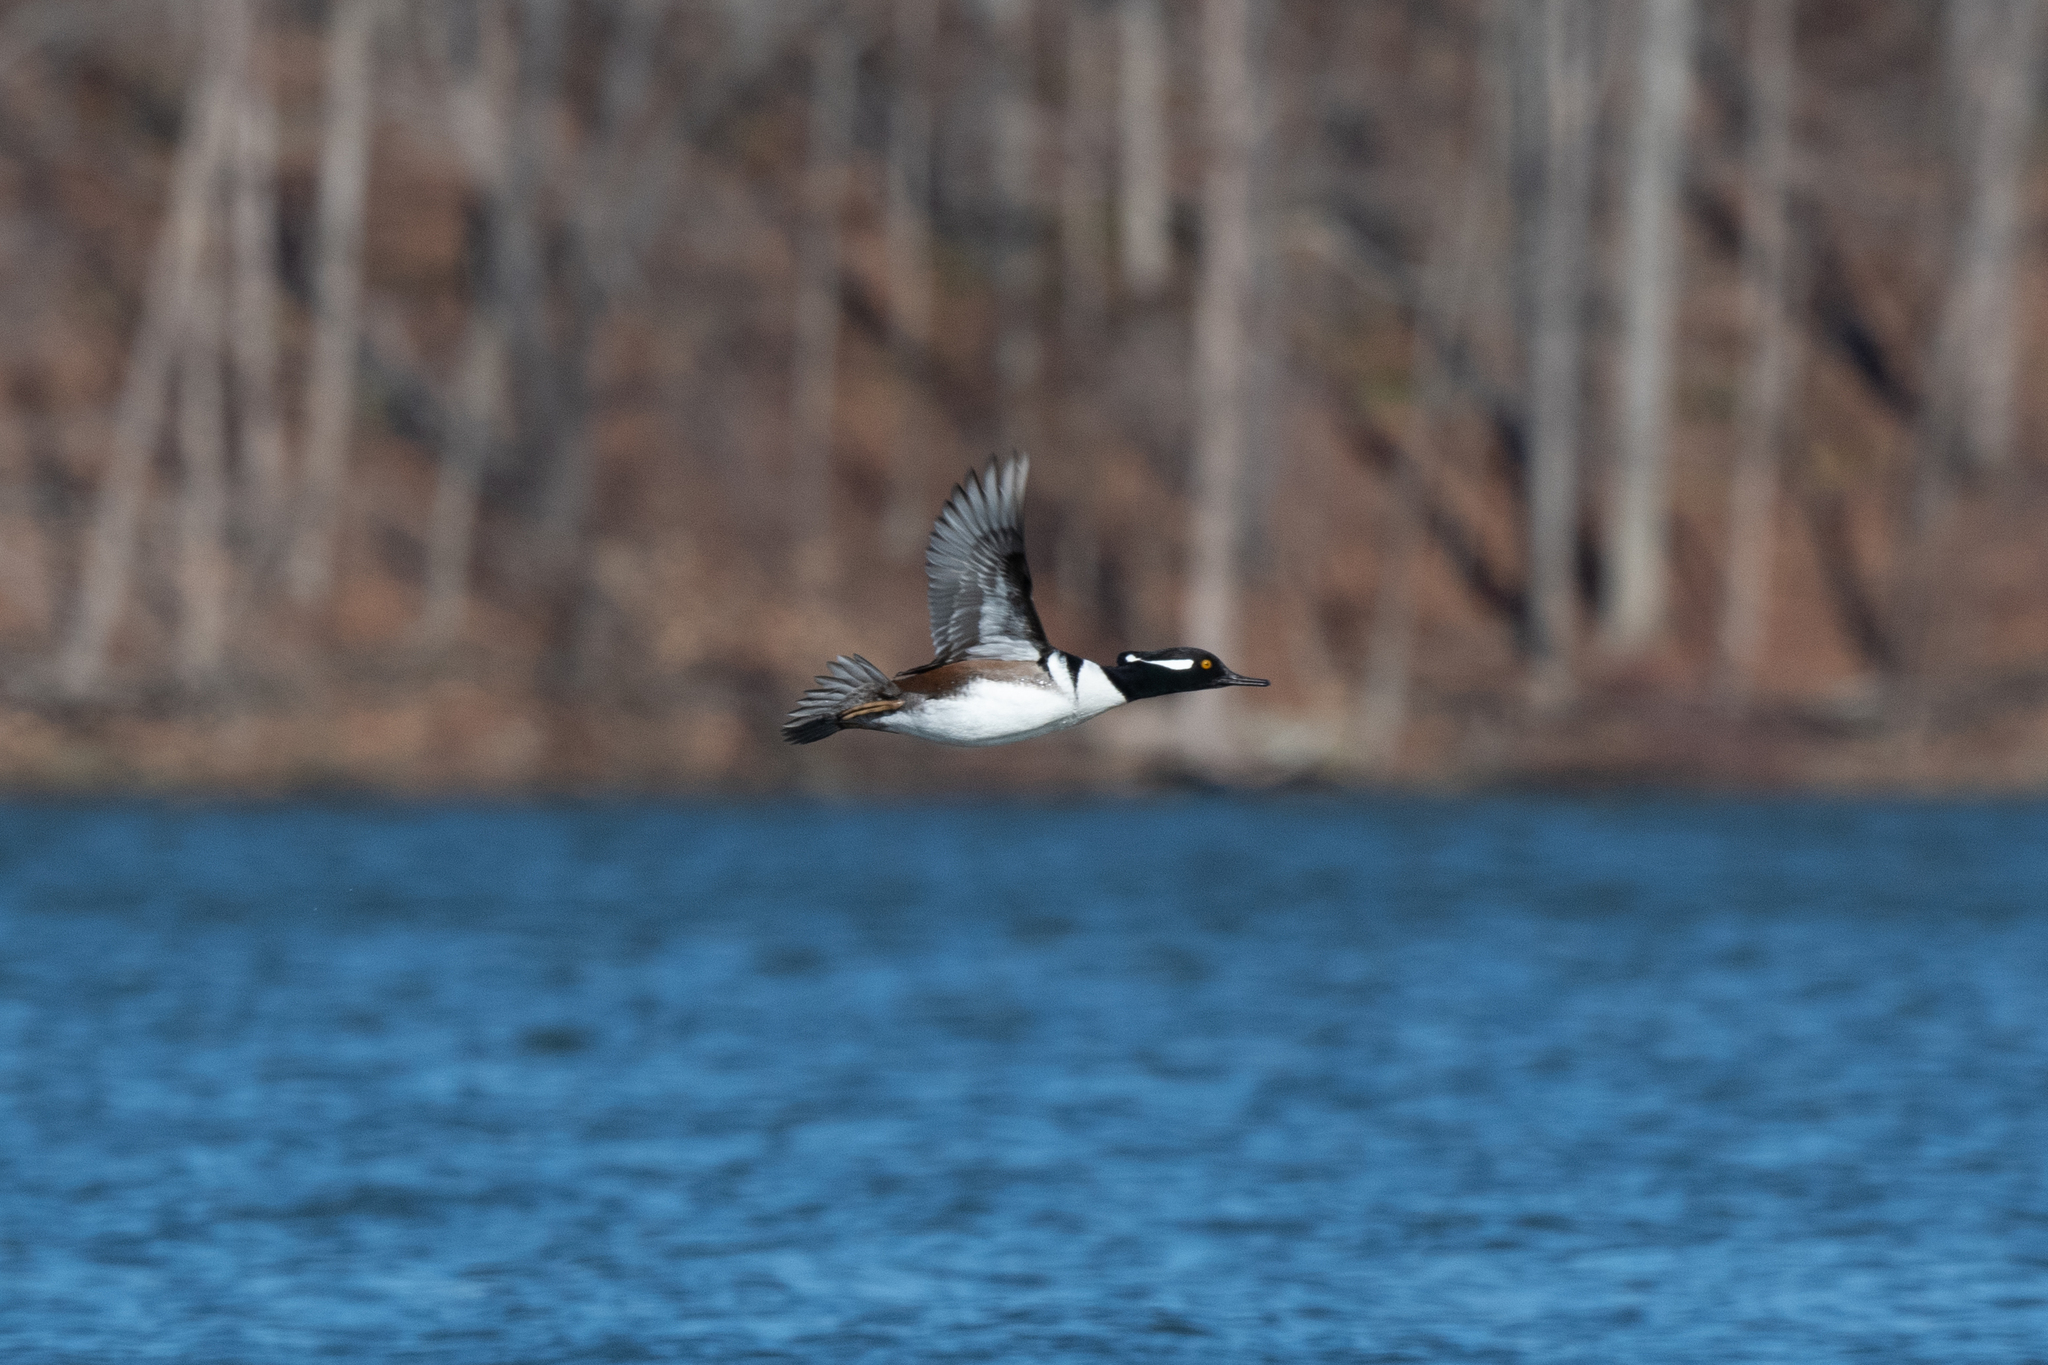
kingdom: Animalia
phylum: Chordata
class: Aves
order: Anseriformes
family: Anatidae
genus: Lophodytes
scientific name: Lophodytes cucullatus
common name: Hooded merganser
